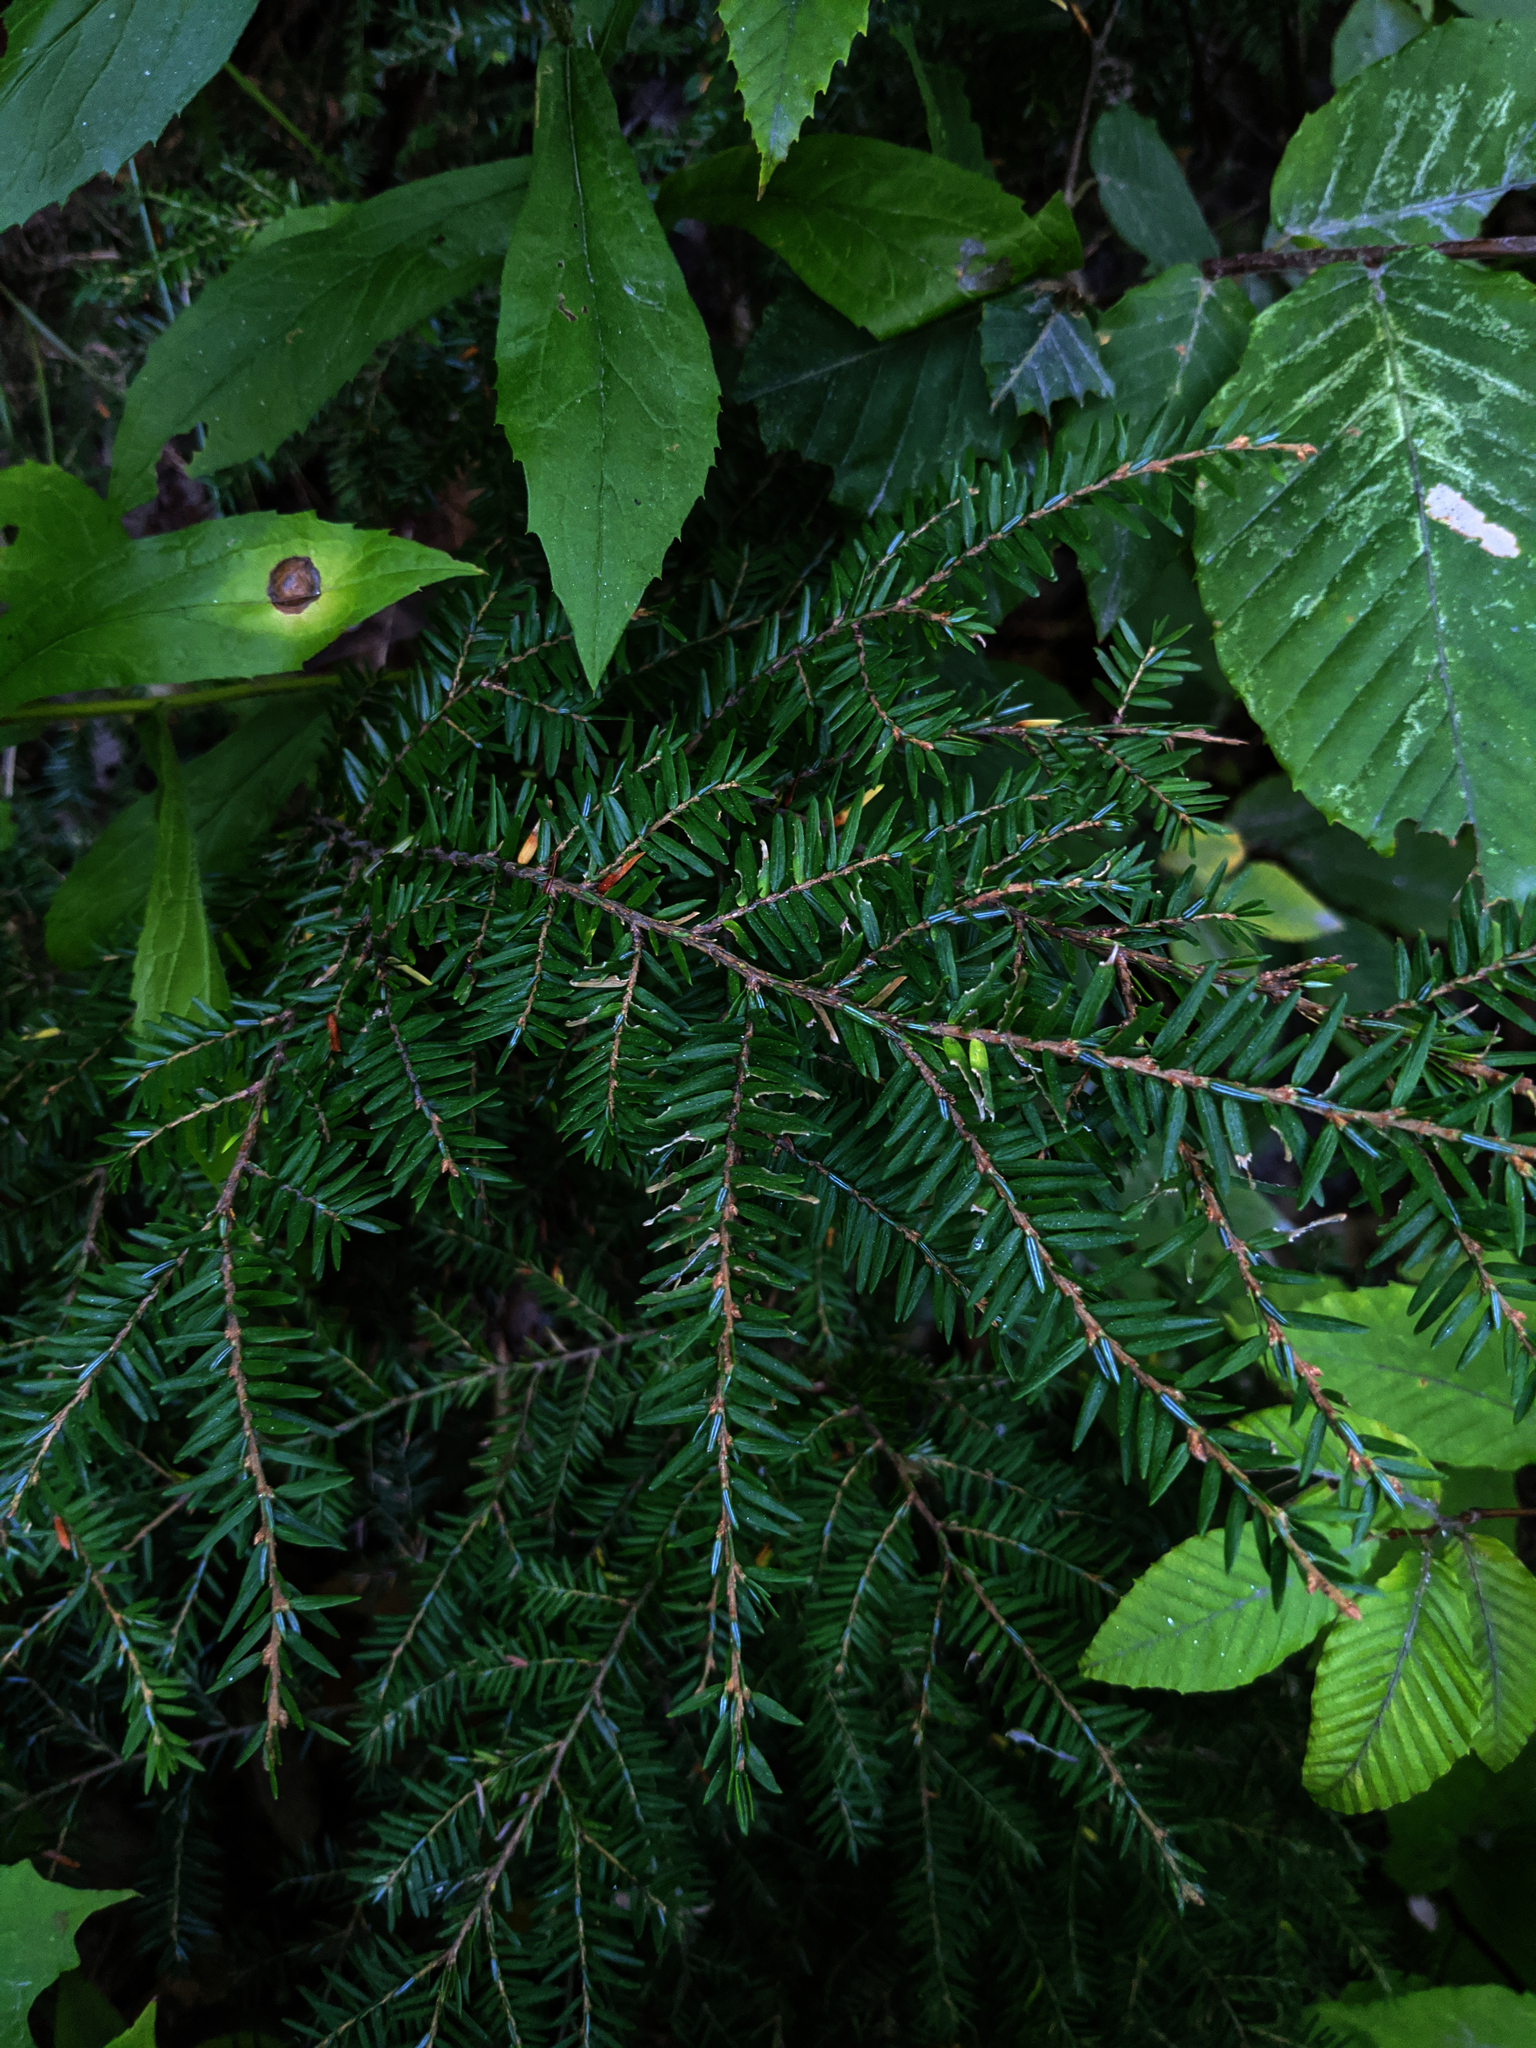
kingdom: Plantae
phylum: Tracheophyta
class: Pinopsida
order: Pinales
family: Pinaceae
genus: Tsuga
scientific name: Tsuga canadensis
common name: Eastern hemlock
